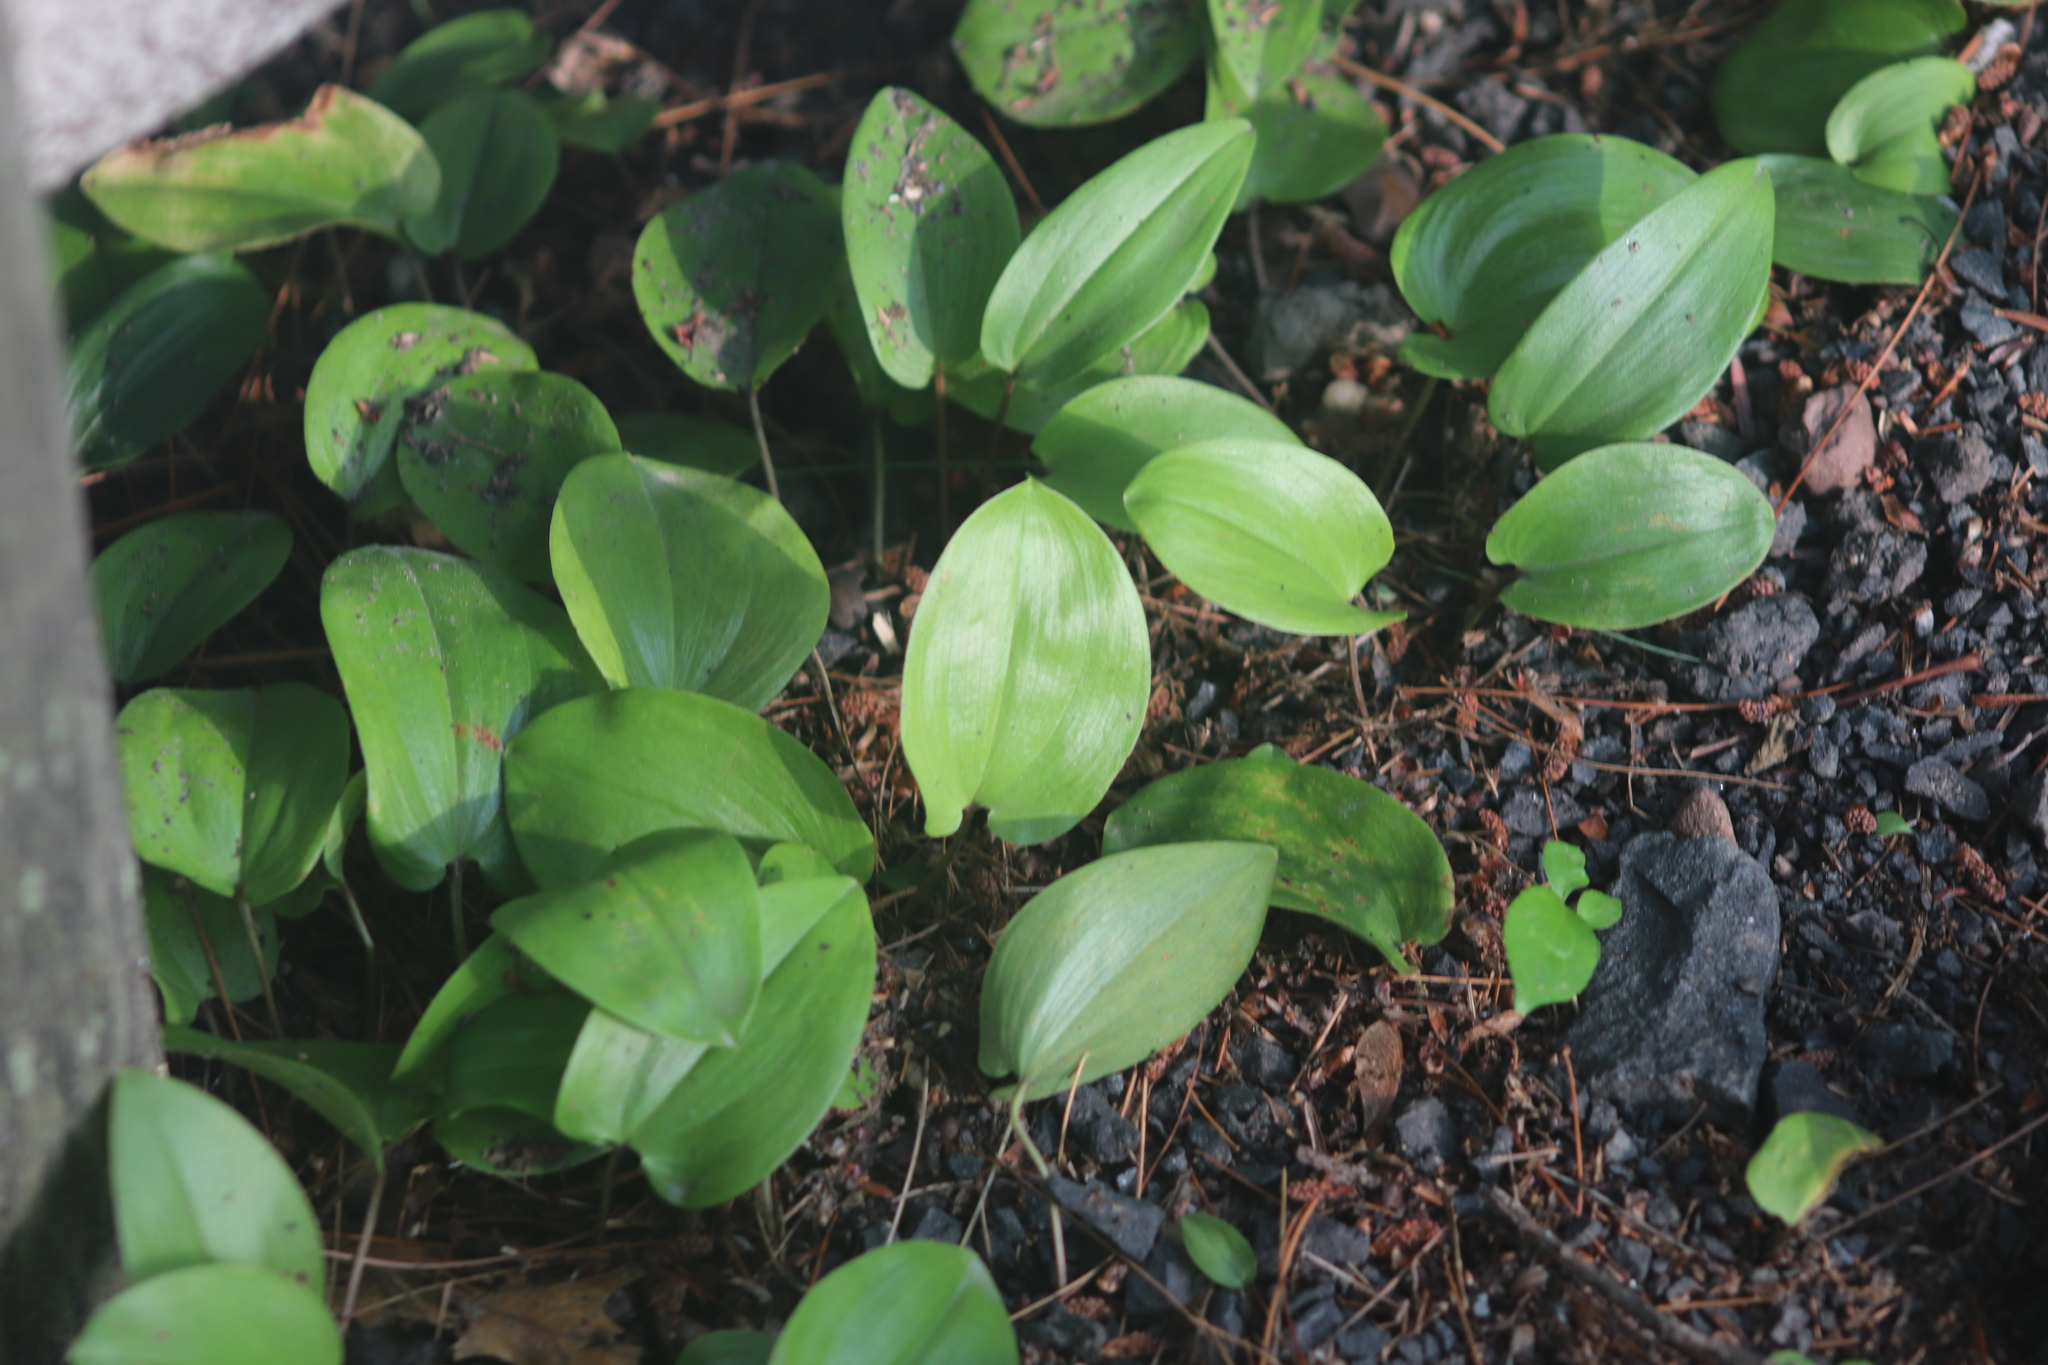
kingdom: Plantae
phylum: Tracheophyta
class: Liliopsida
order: Asparagales
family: Asparagaceae
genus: Maianthemum
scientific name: Maianthemum canadense
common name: False lily-of-the-valley
